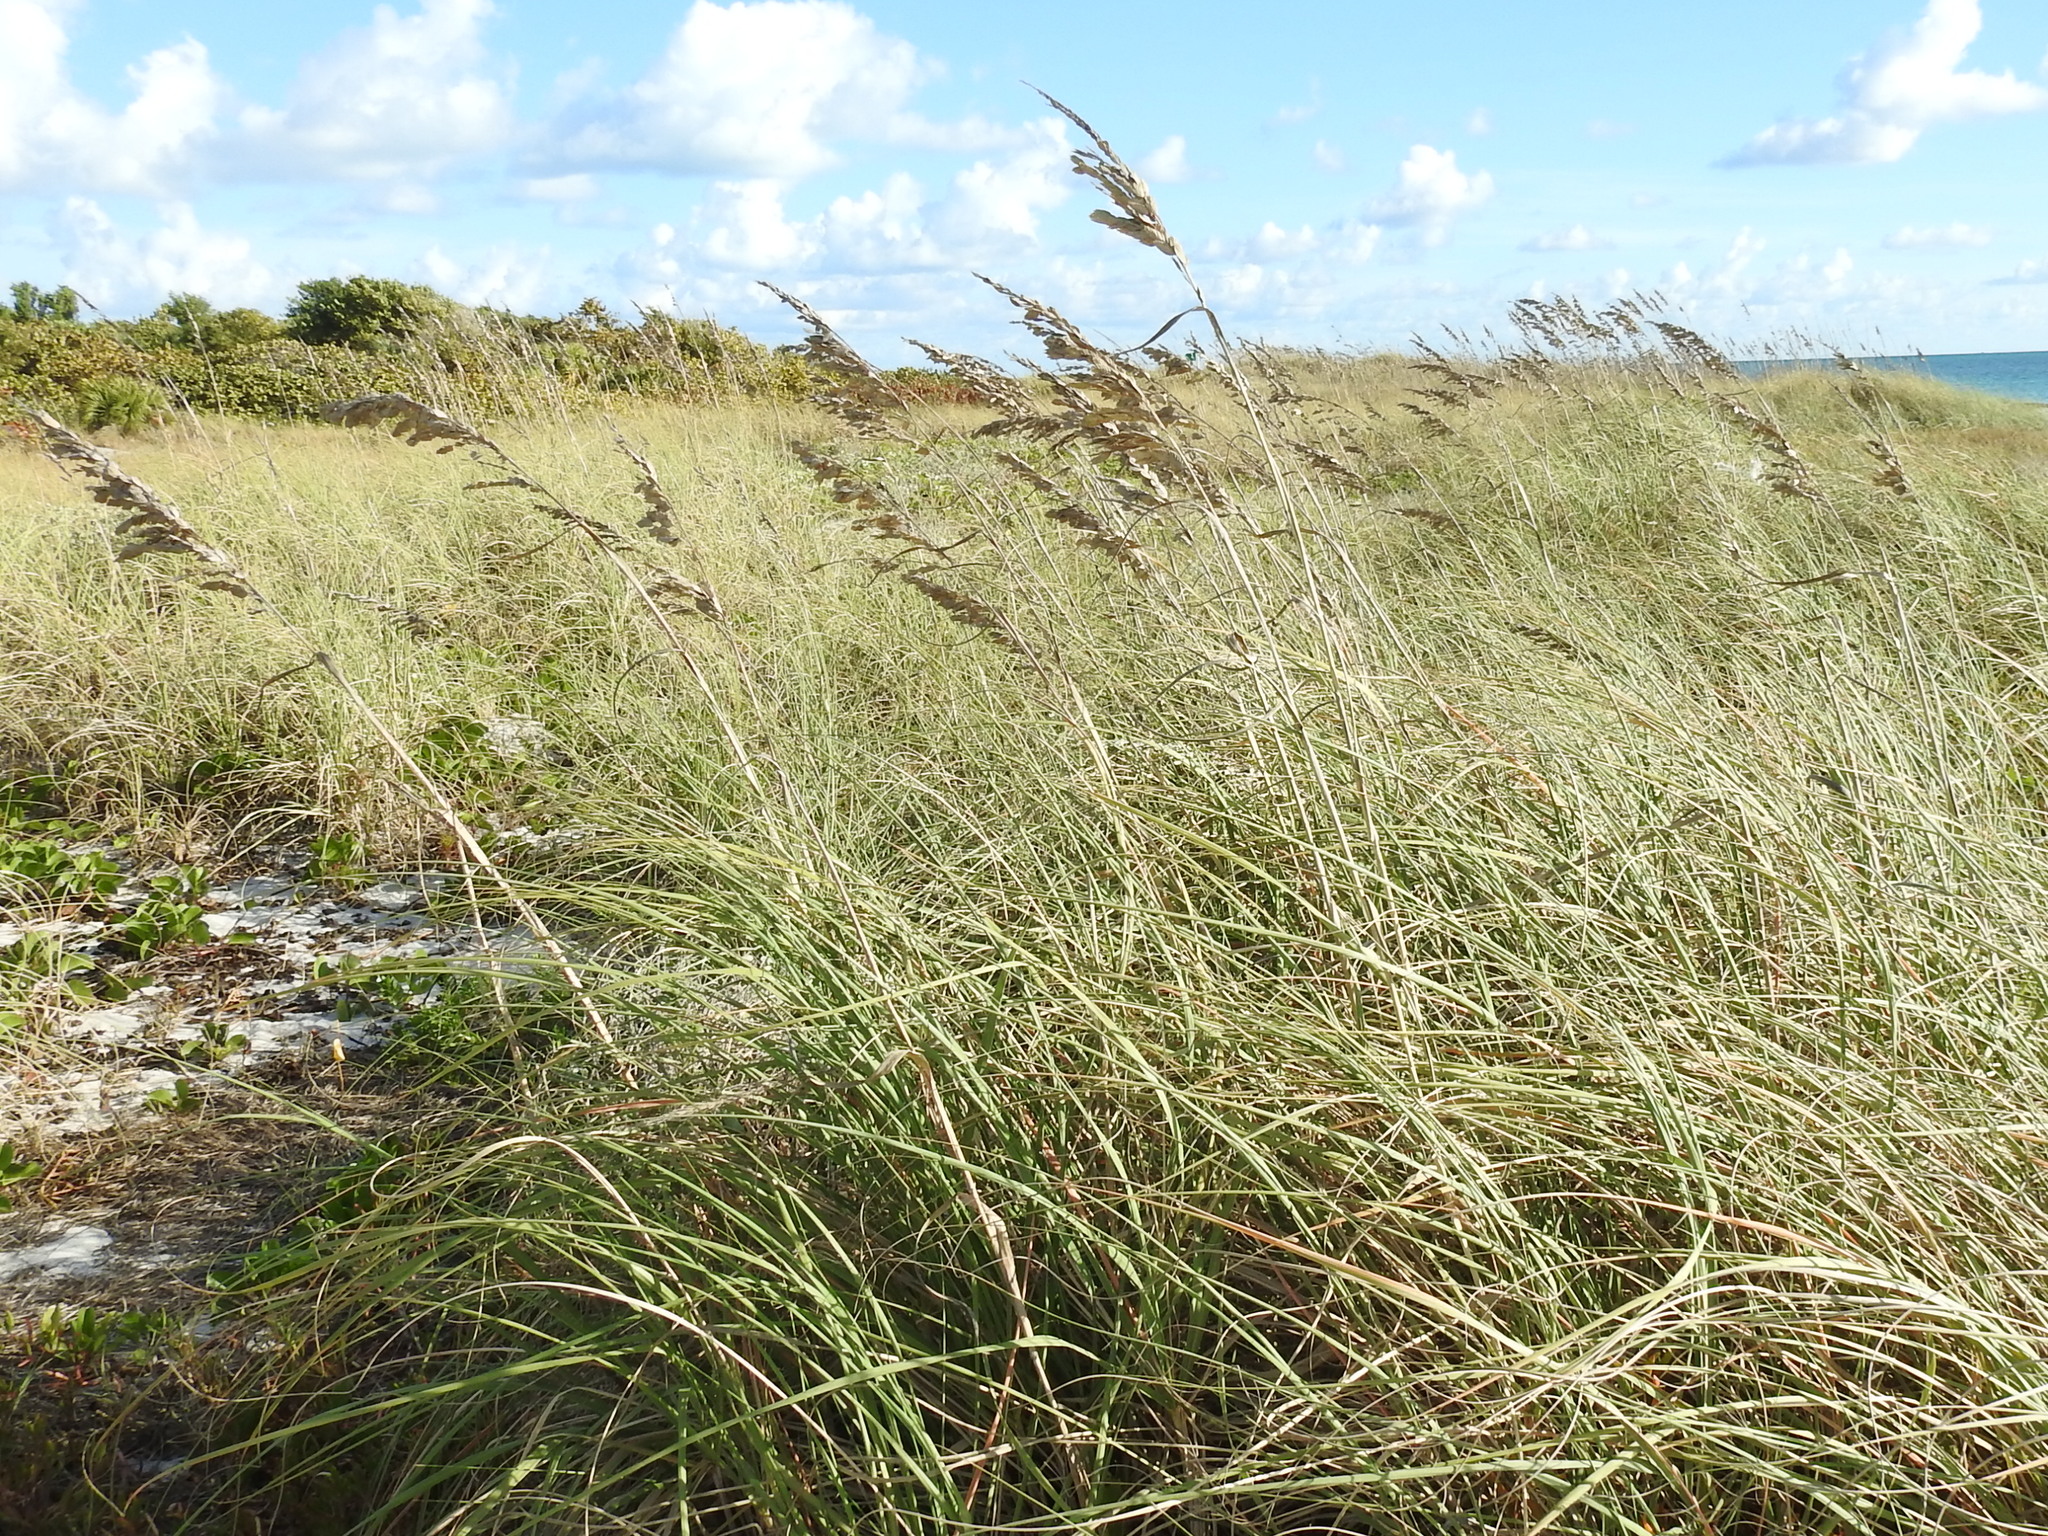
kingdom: Plantae
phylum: Tracheophyta
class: Liliopsida
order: Poales
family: Poaceae
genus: Uniola
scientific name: Uniola paniculata
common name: Seaside-oats
